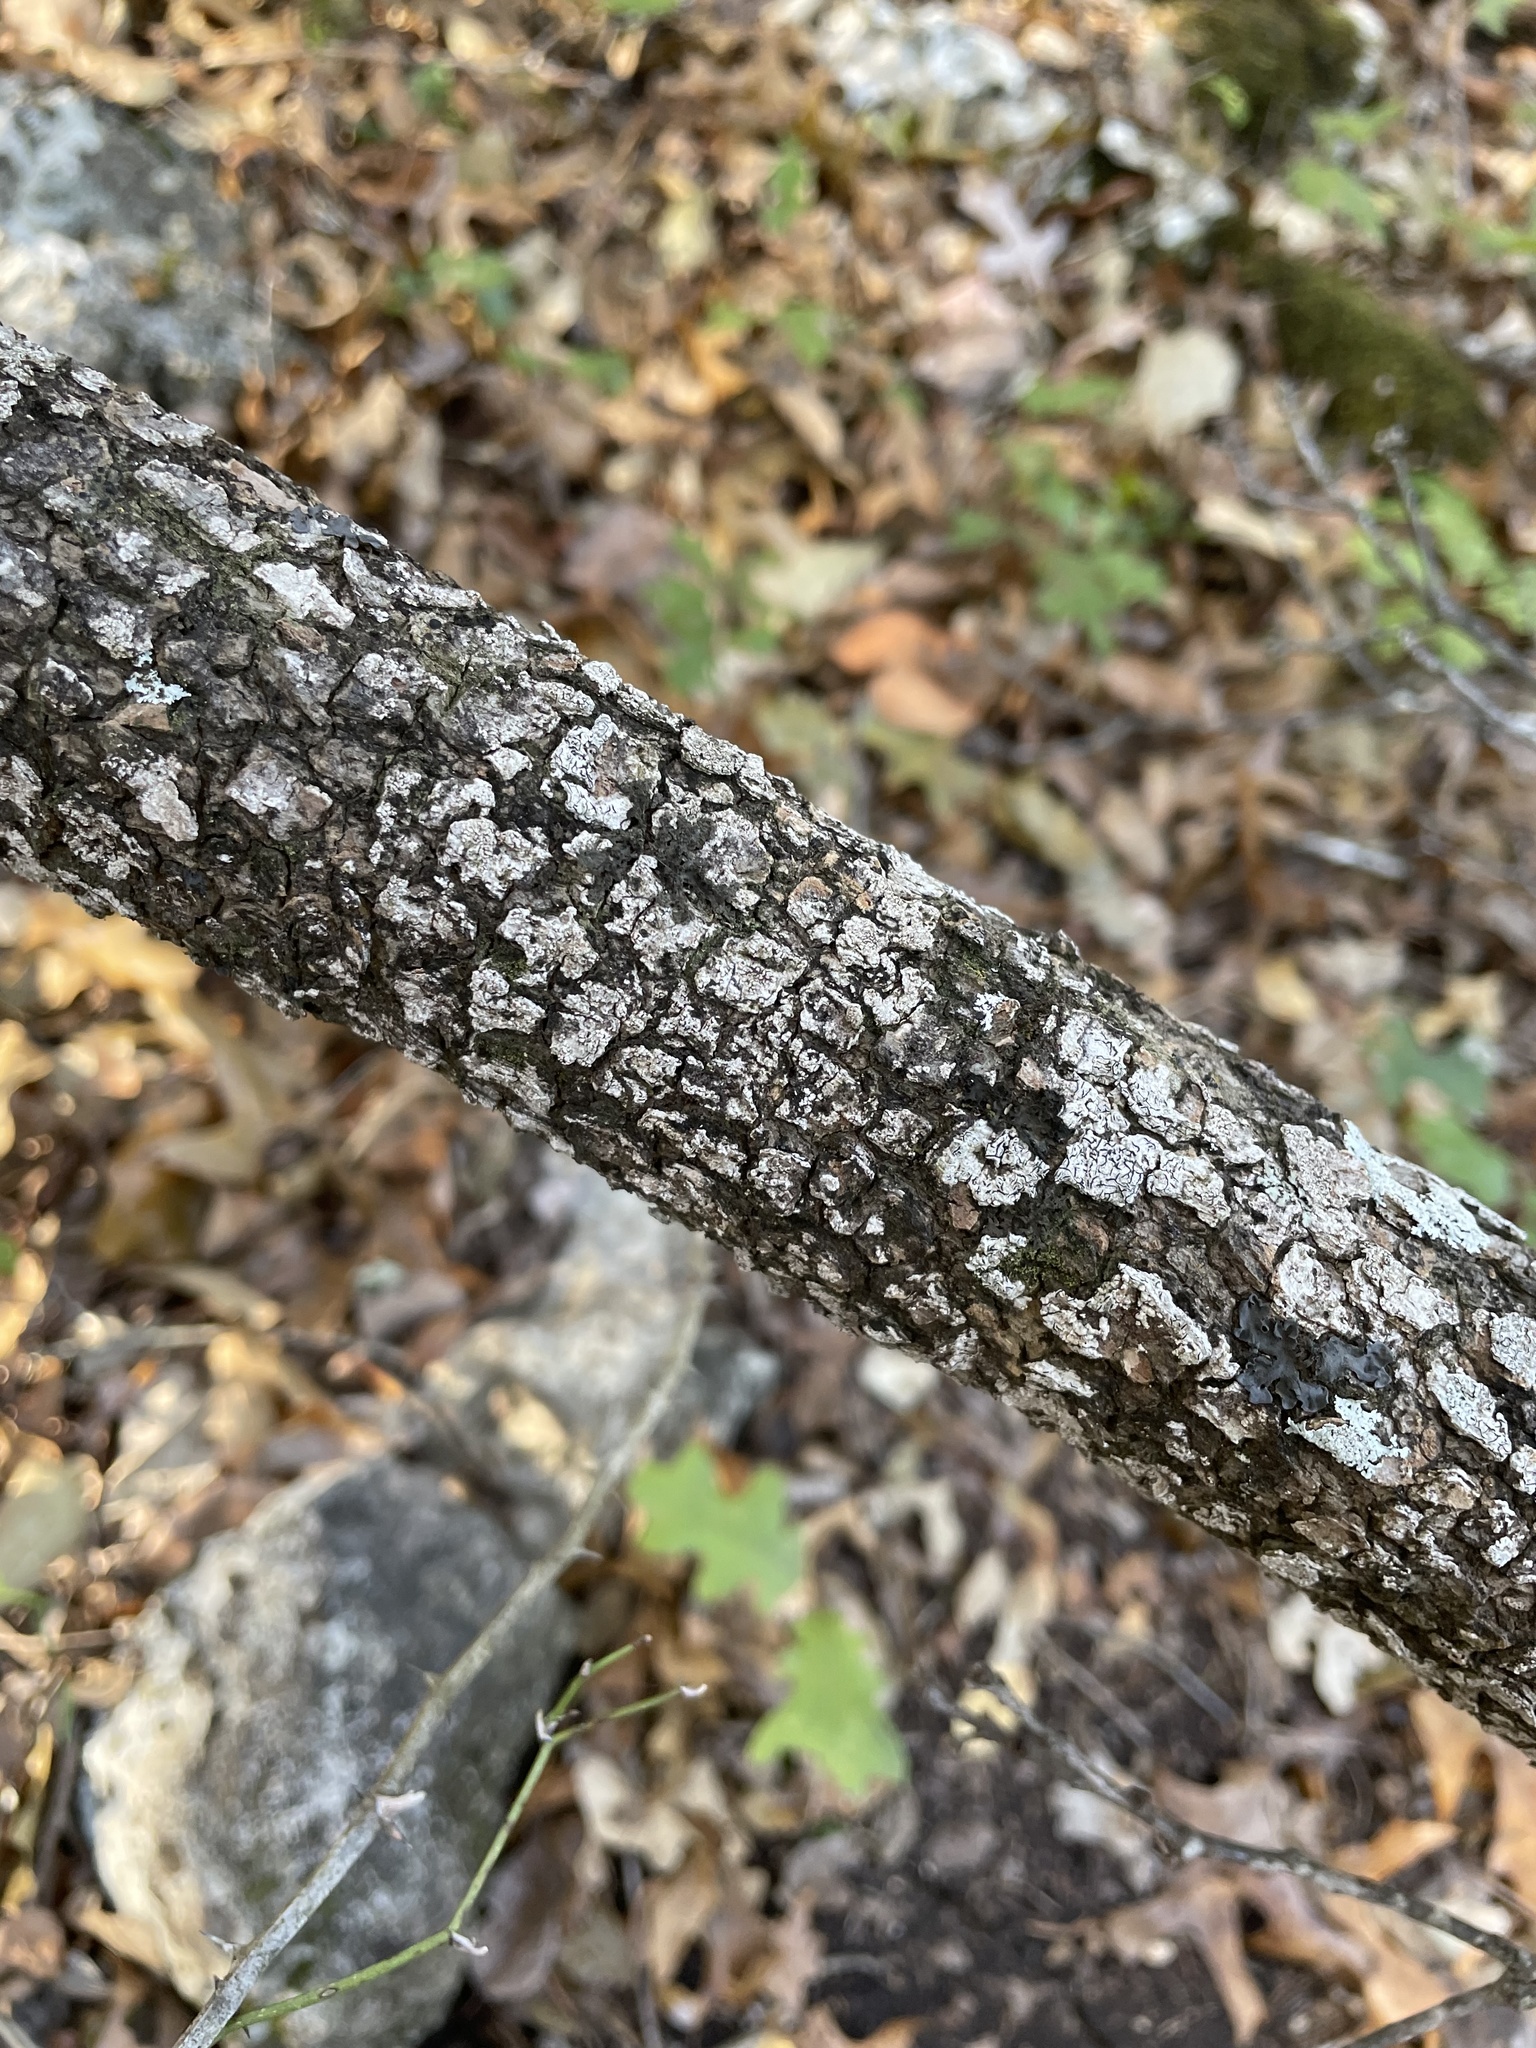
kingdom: Plantae
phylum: Tracheophyta
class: Magnoliopsida
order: Dipsacales
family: Viburnaceae
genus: Viburnum
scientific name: Viburnum rufidulum
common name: Blue haw
